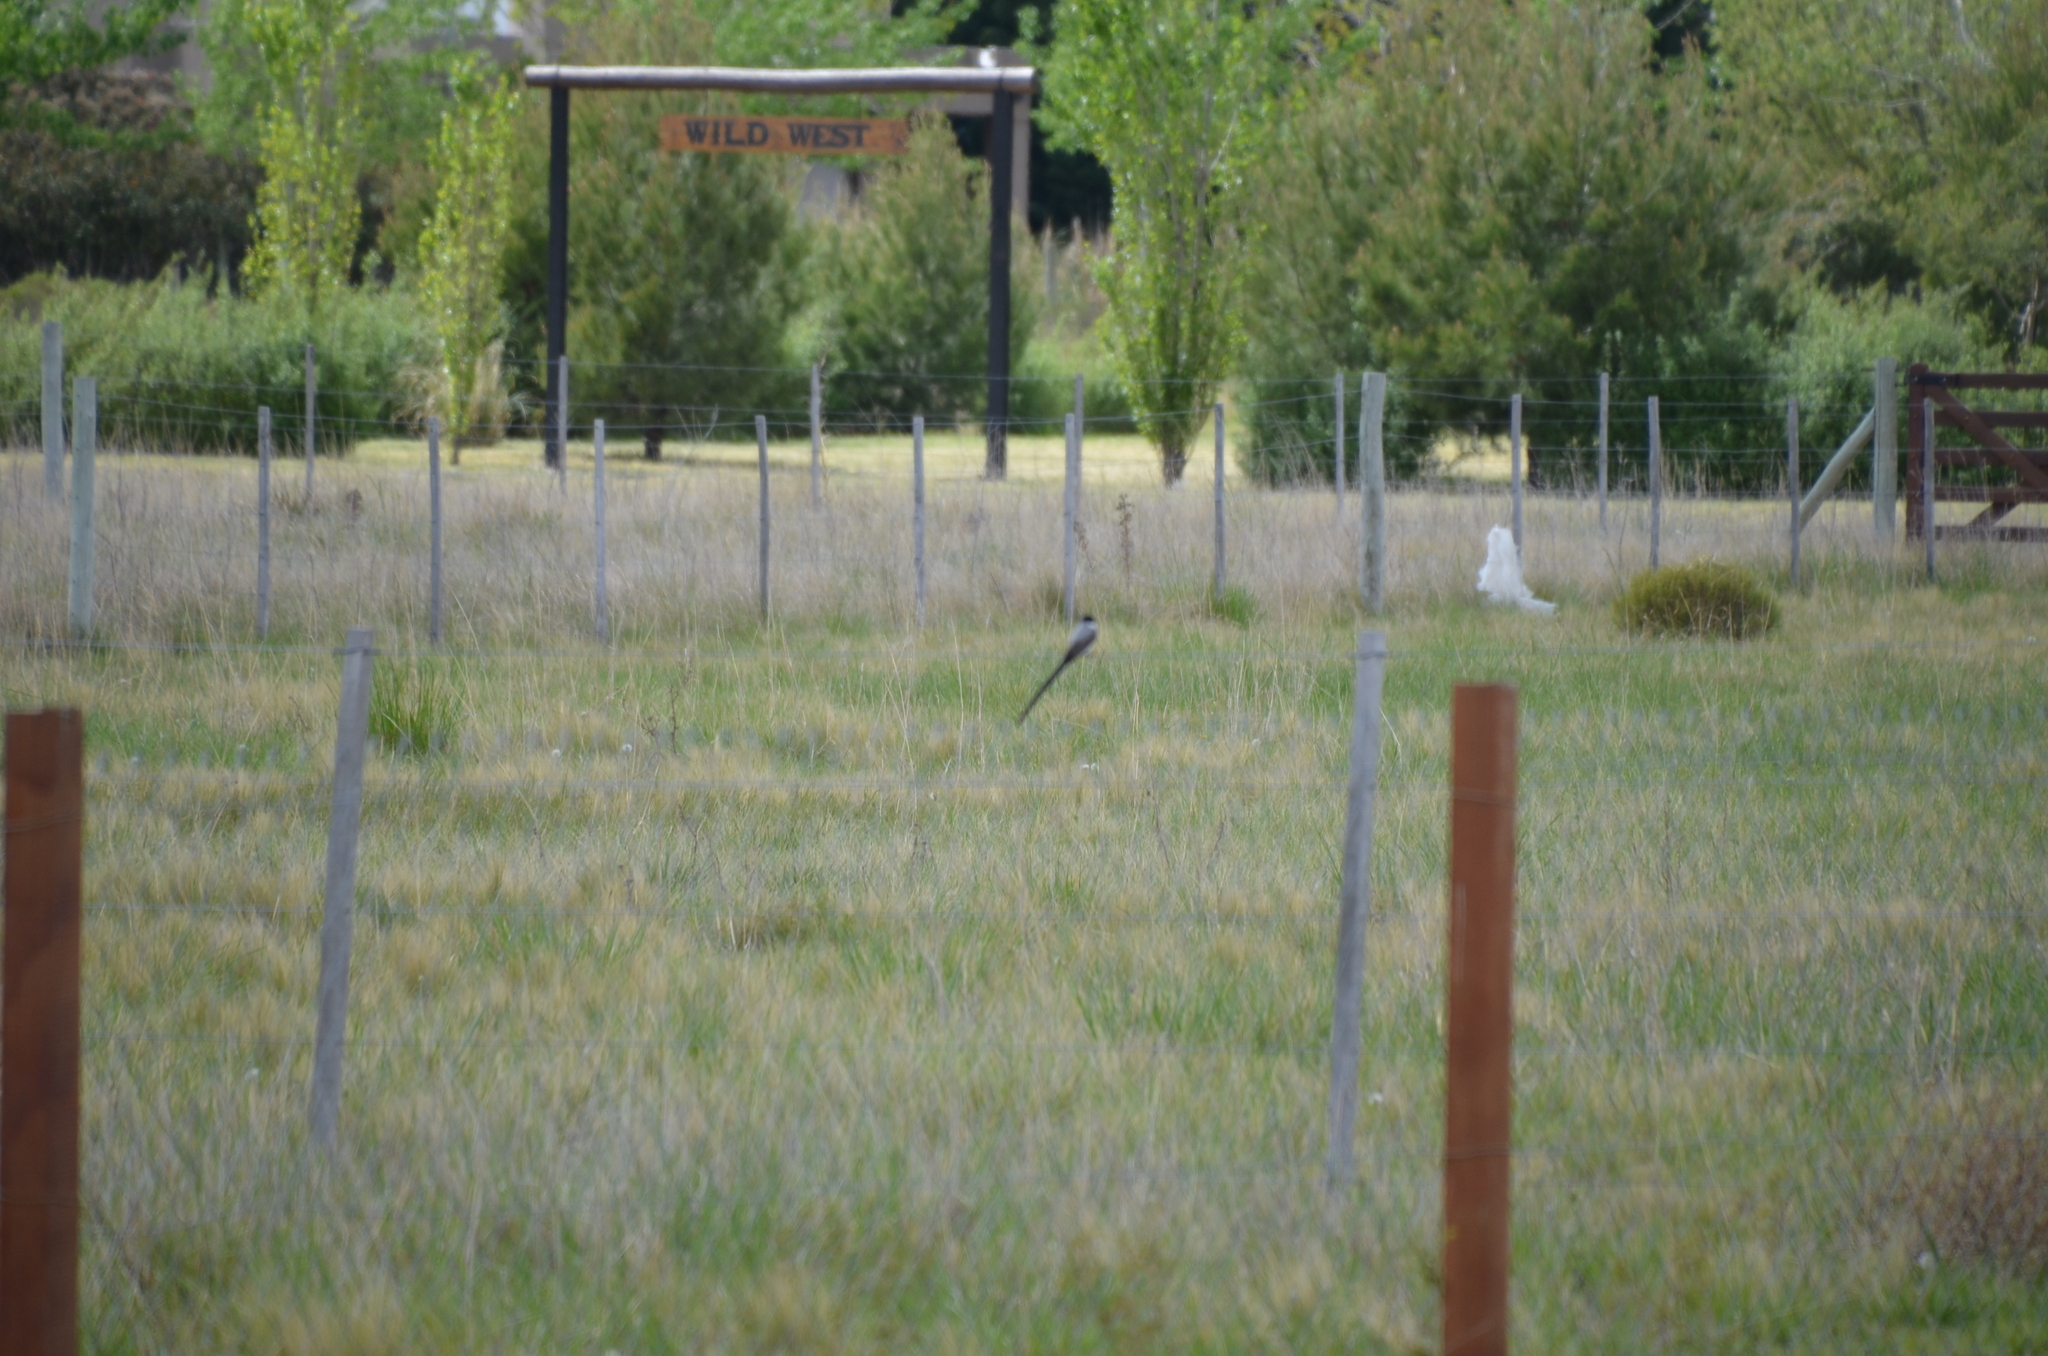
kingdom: Animalia
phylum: Chordata
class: Aves
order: Passeriformes
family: Tyrannidae
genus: Tyrannus
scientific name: Tyrannus savana
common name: Fork-tailed flycatcher
